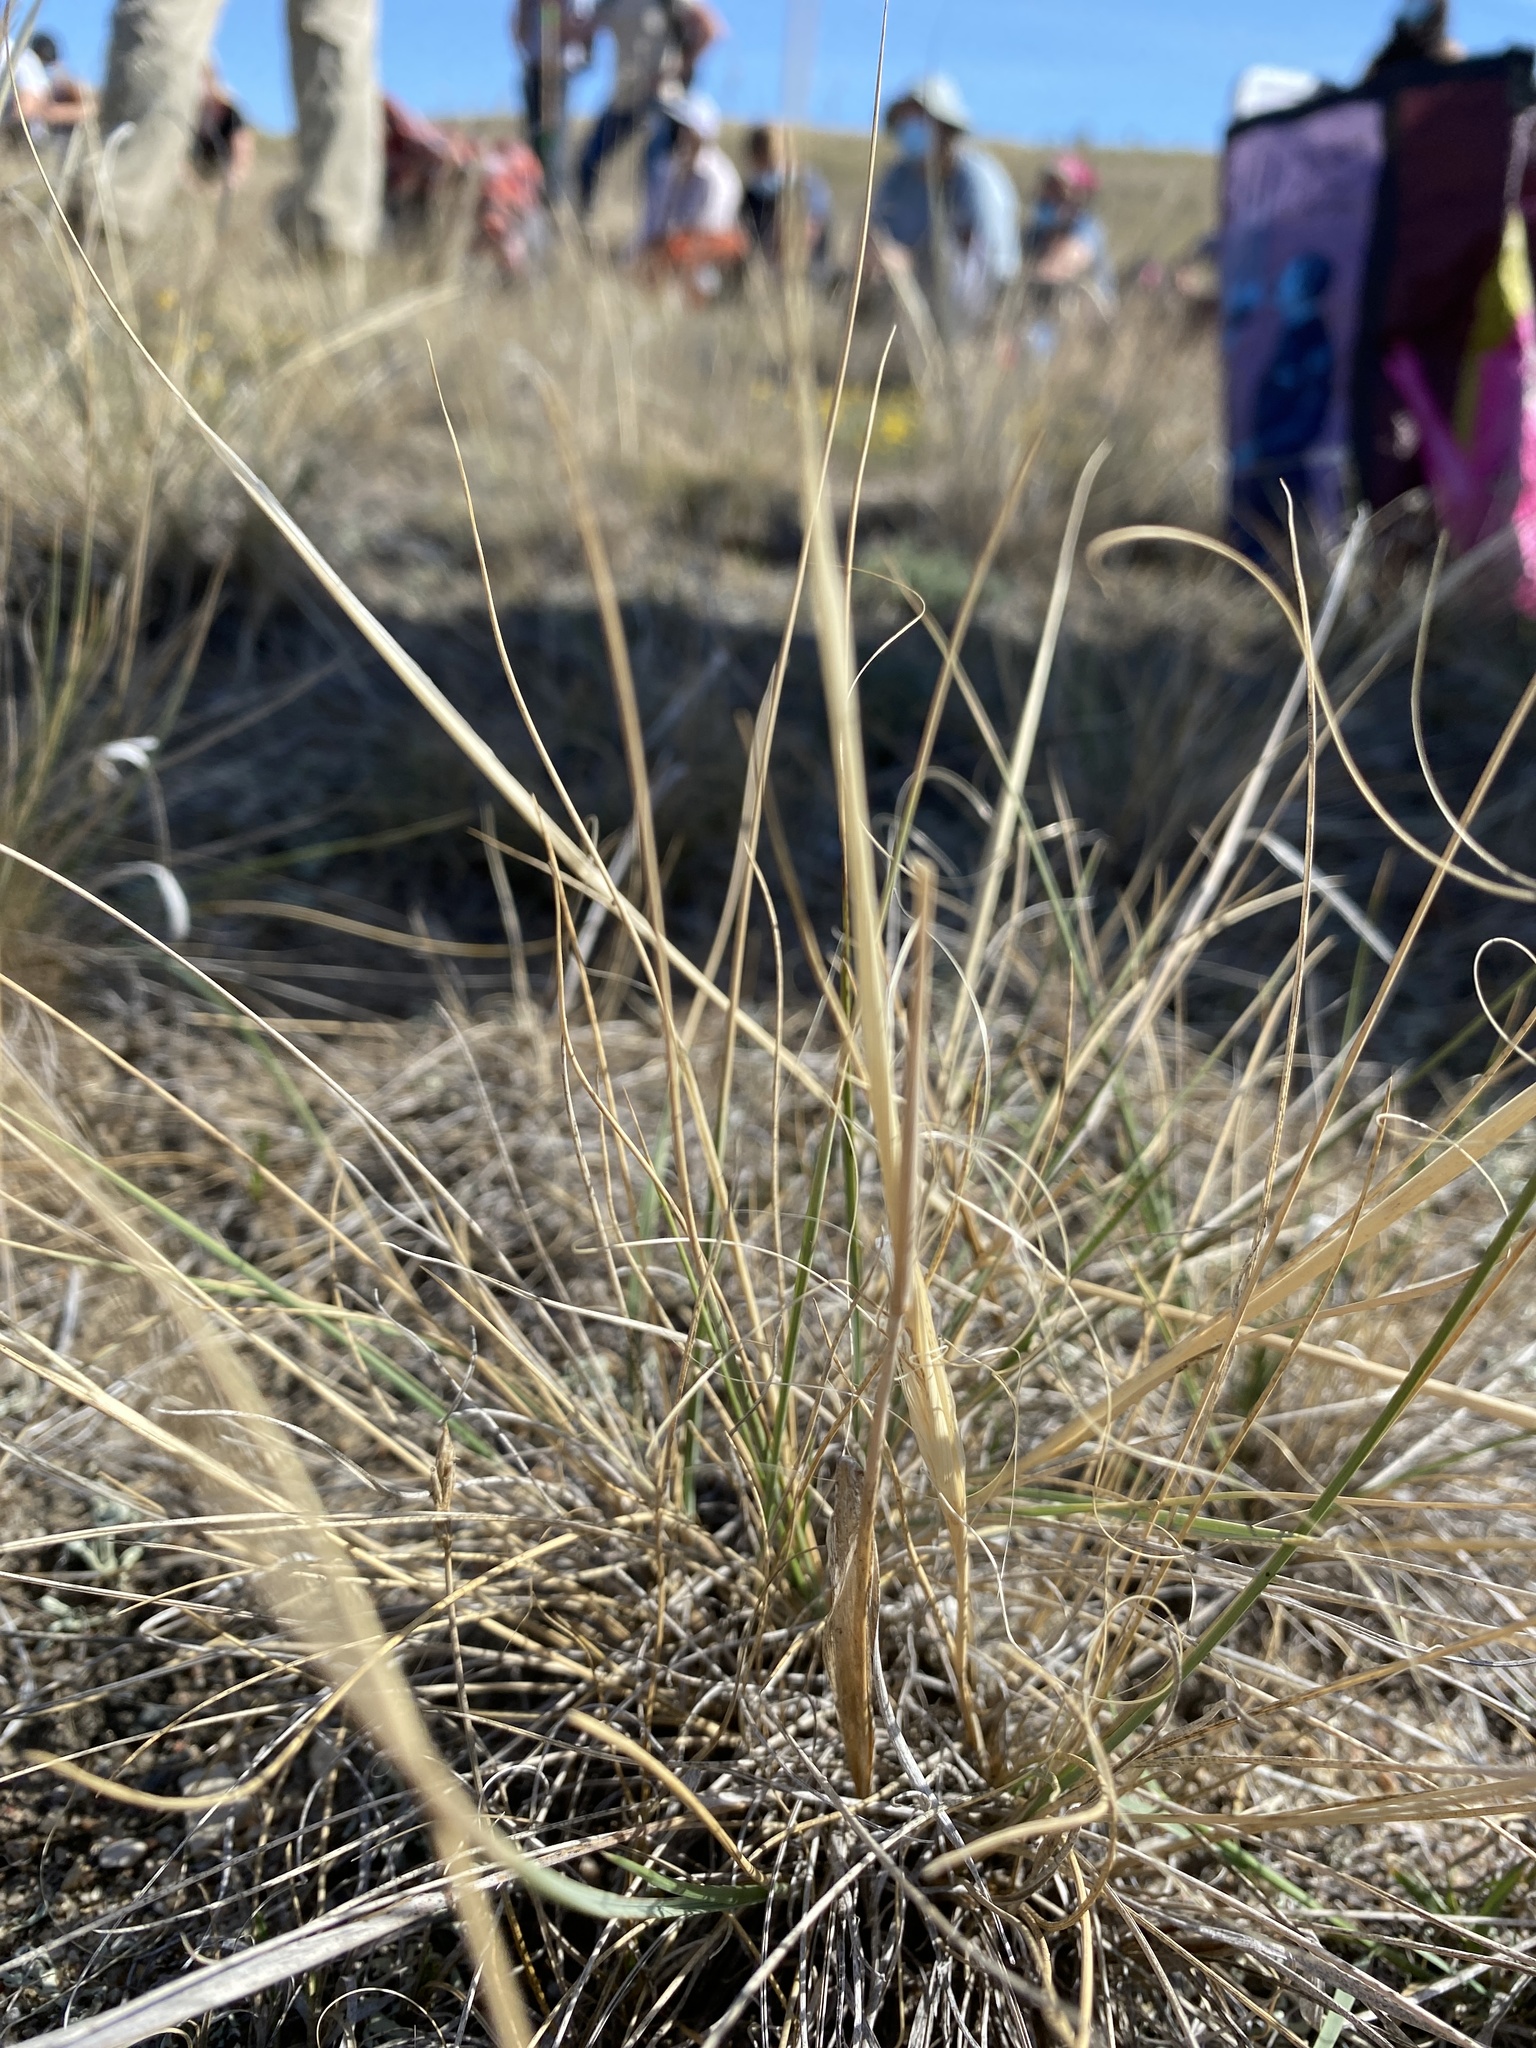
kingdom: Plantae
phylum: Tracheophyta
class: Liliopsida
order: Poales
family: Poaceae
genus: Hesperostipa
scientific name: Hesperostipa comata
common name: Needle-and-thread grass
